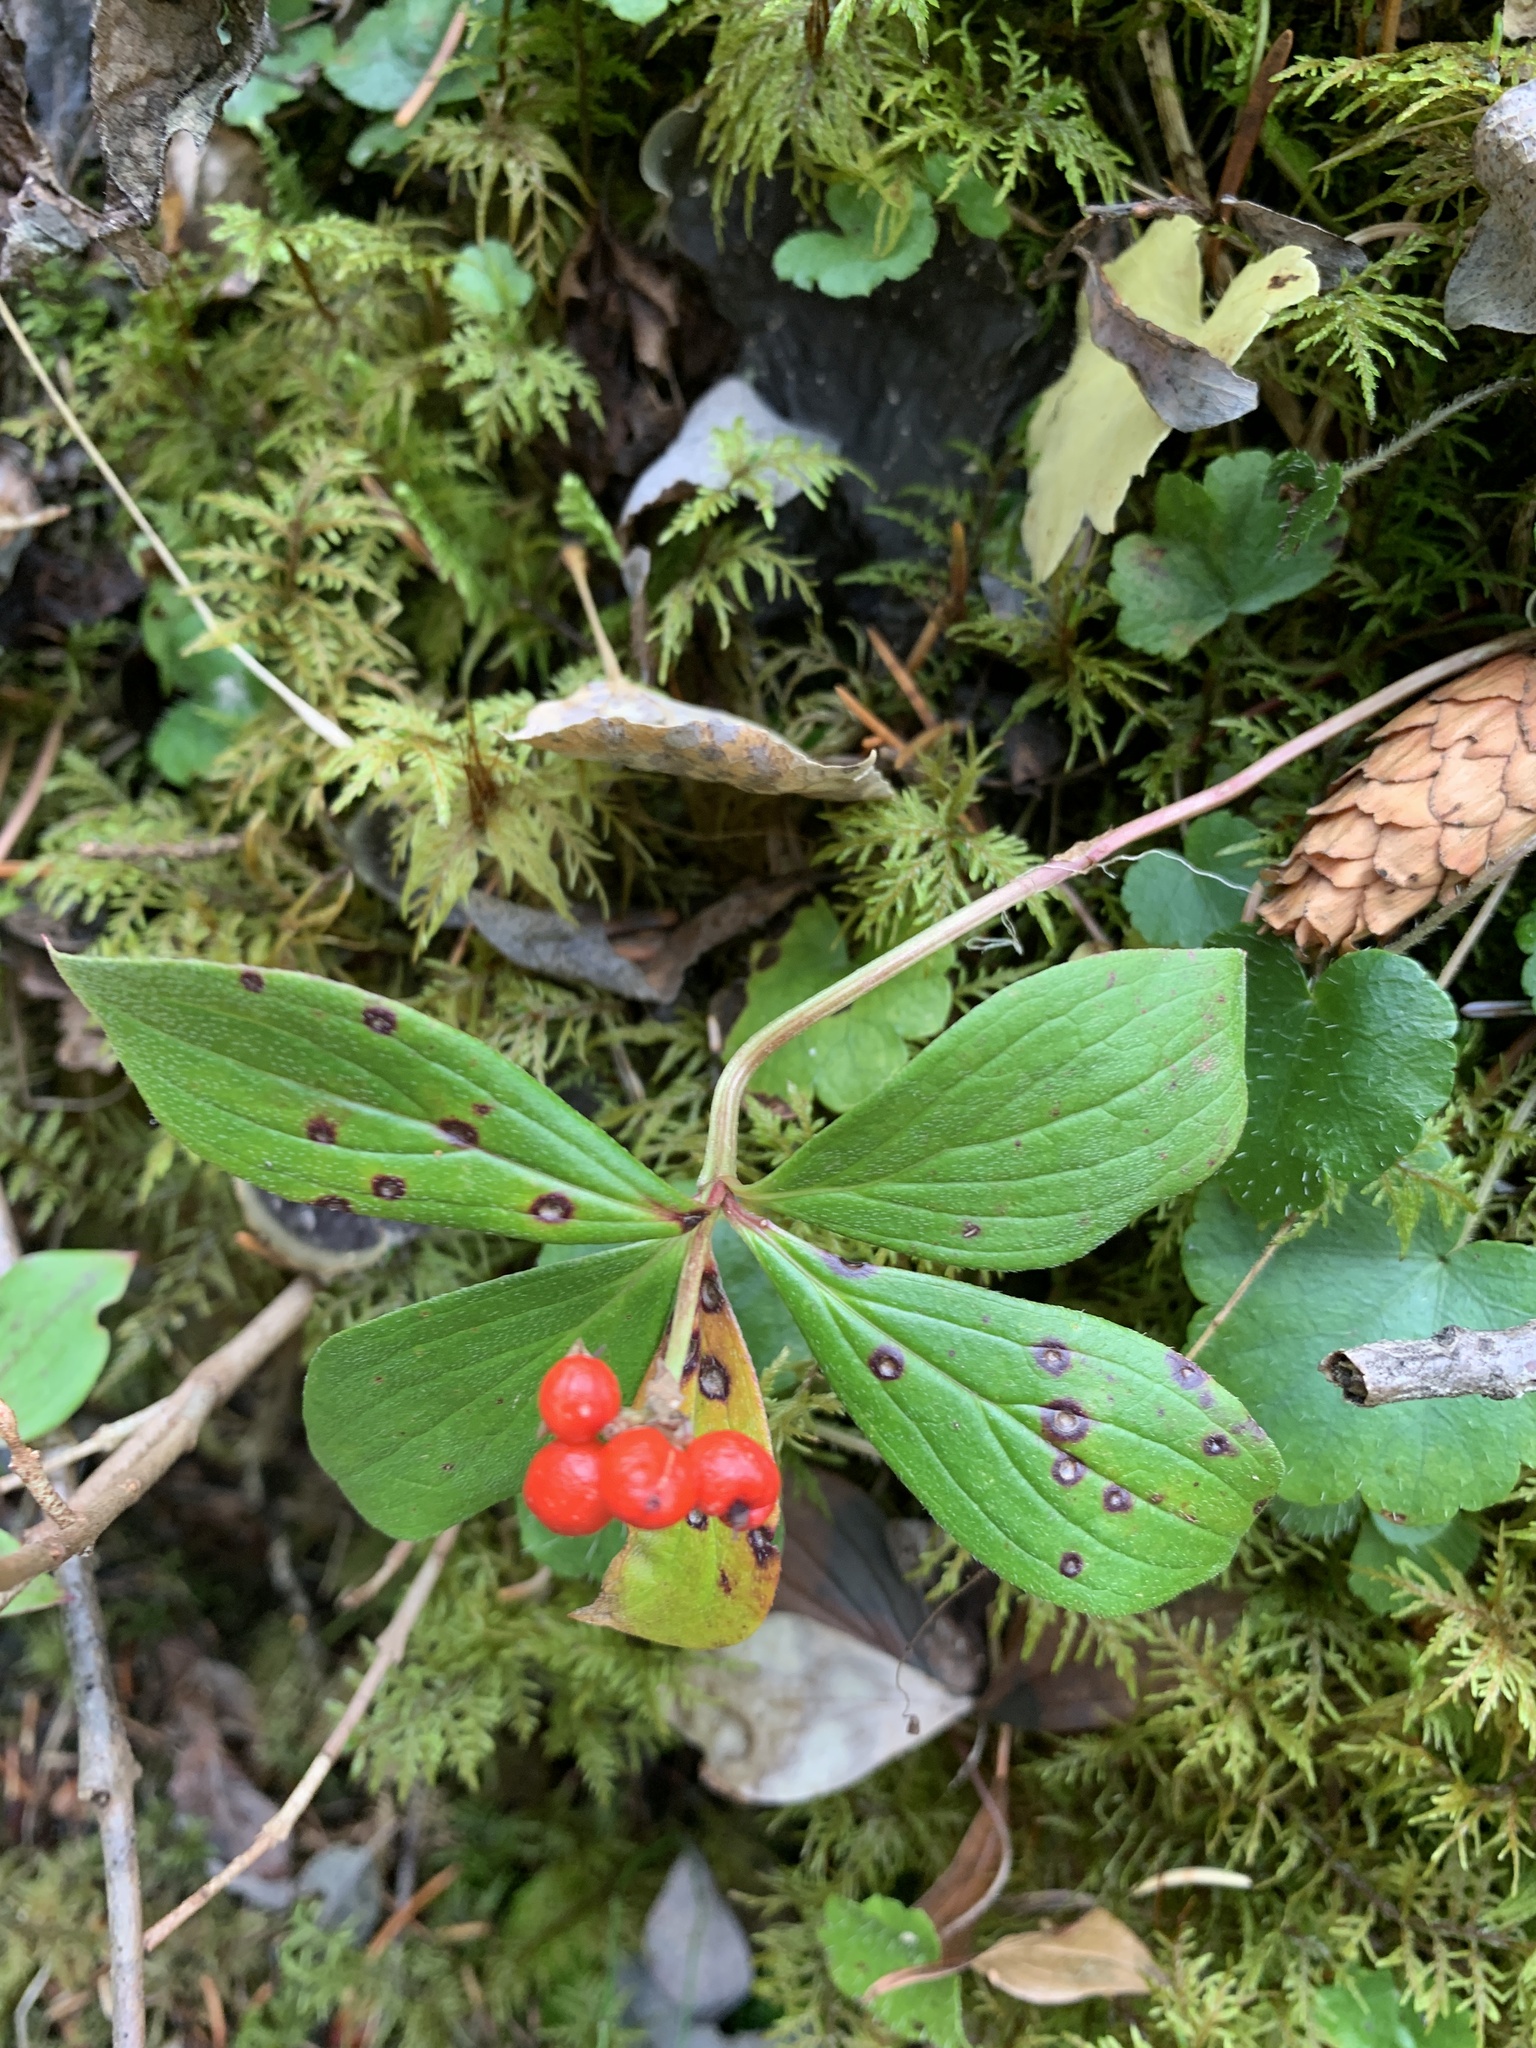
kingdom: Plantae
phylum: Tracheophyta
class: Magnoliopsida
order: Cornales
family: Cornaceae
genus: Cornus
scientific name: Cornus canadensis
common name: Creeping dogwood
